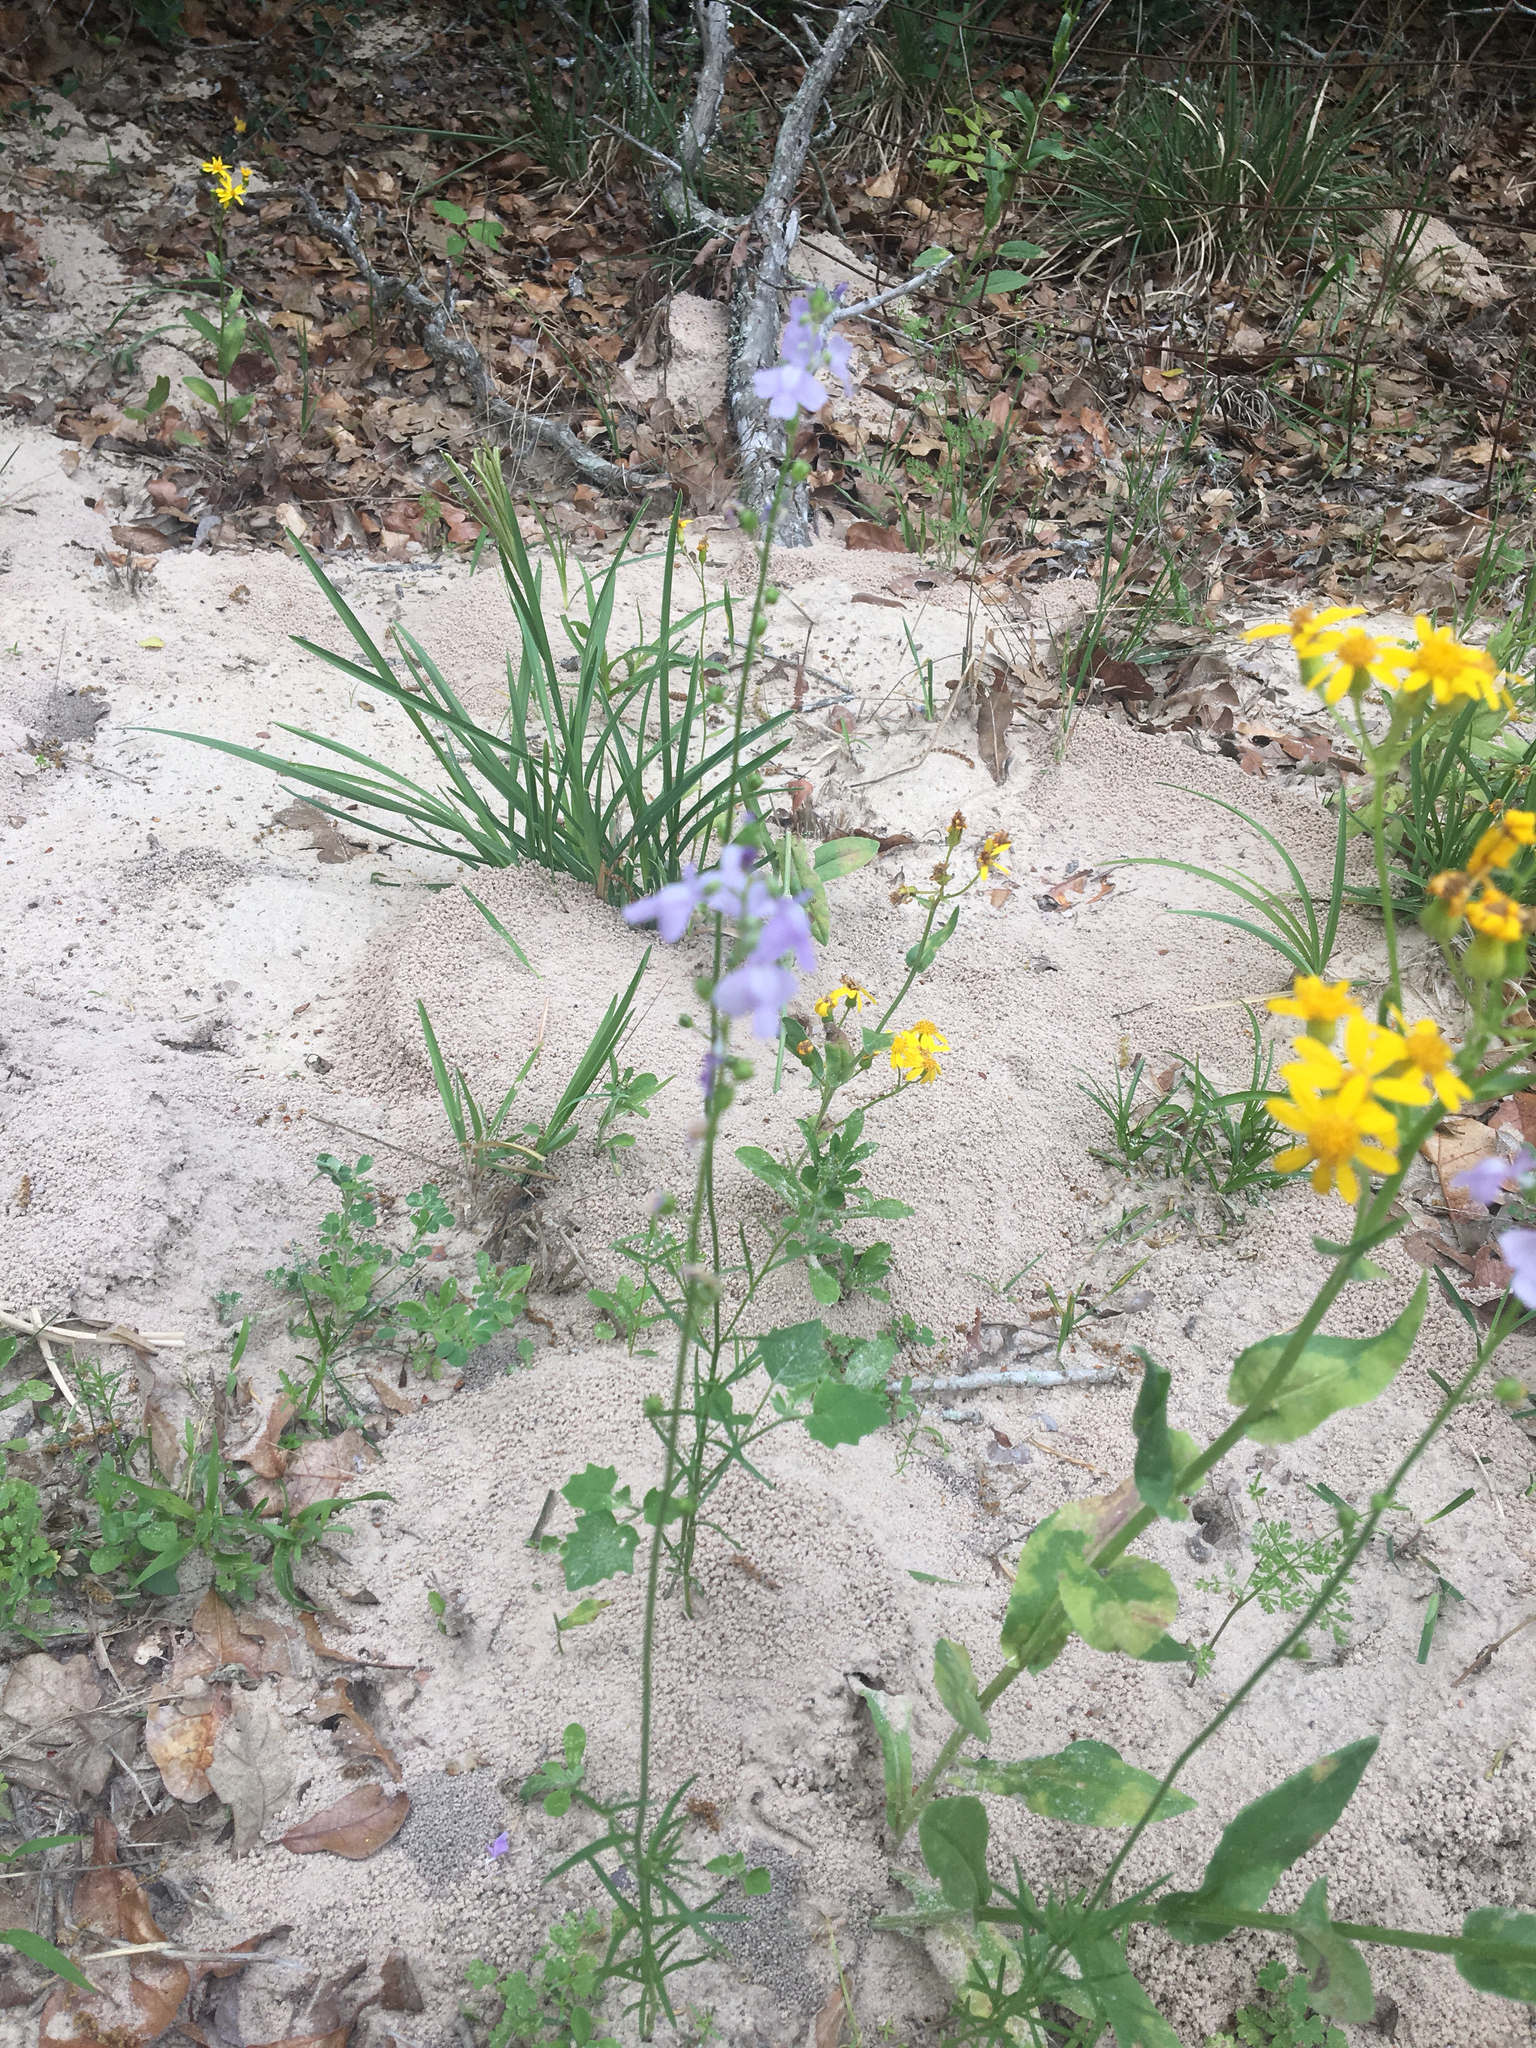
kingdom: Plantae
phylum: Tracheophyta
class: Magnoliopsida
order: Lamiales
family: Plantaginaceae
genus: Nuttallanthus
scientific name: Nuttallanthus texanus
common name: Texas toadflax
